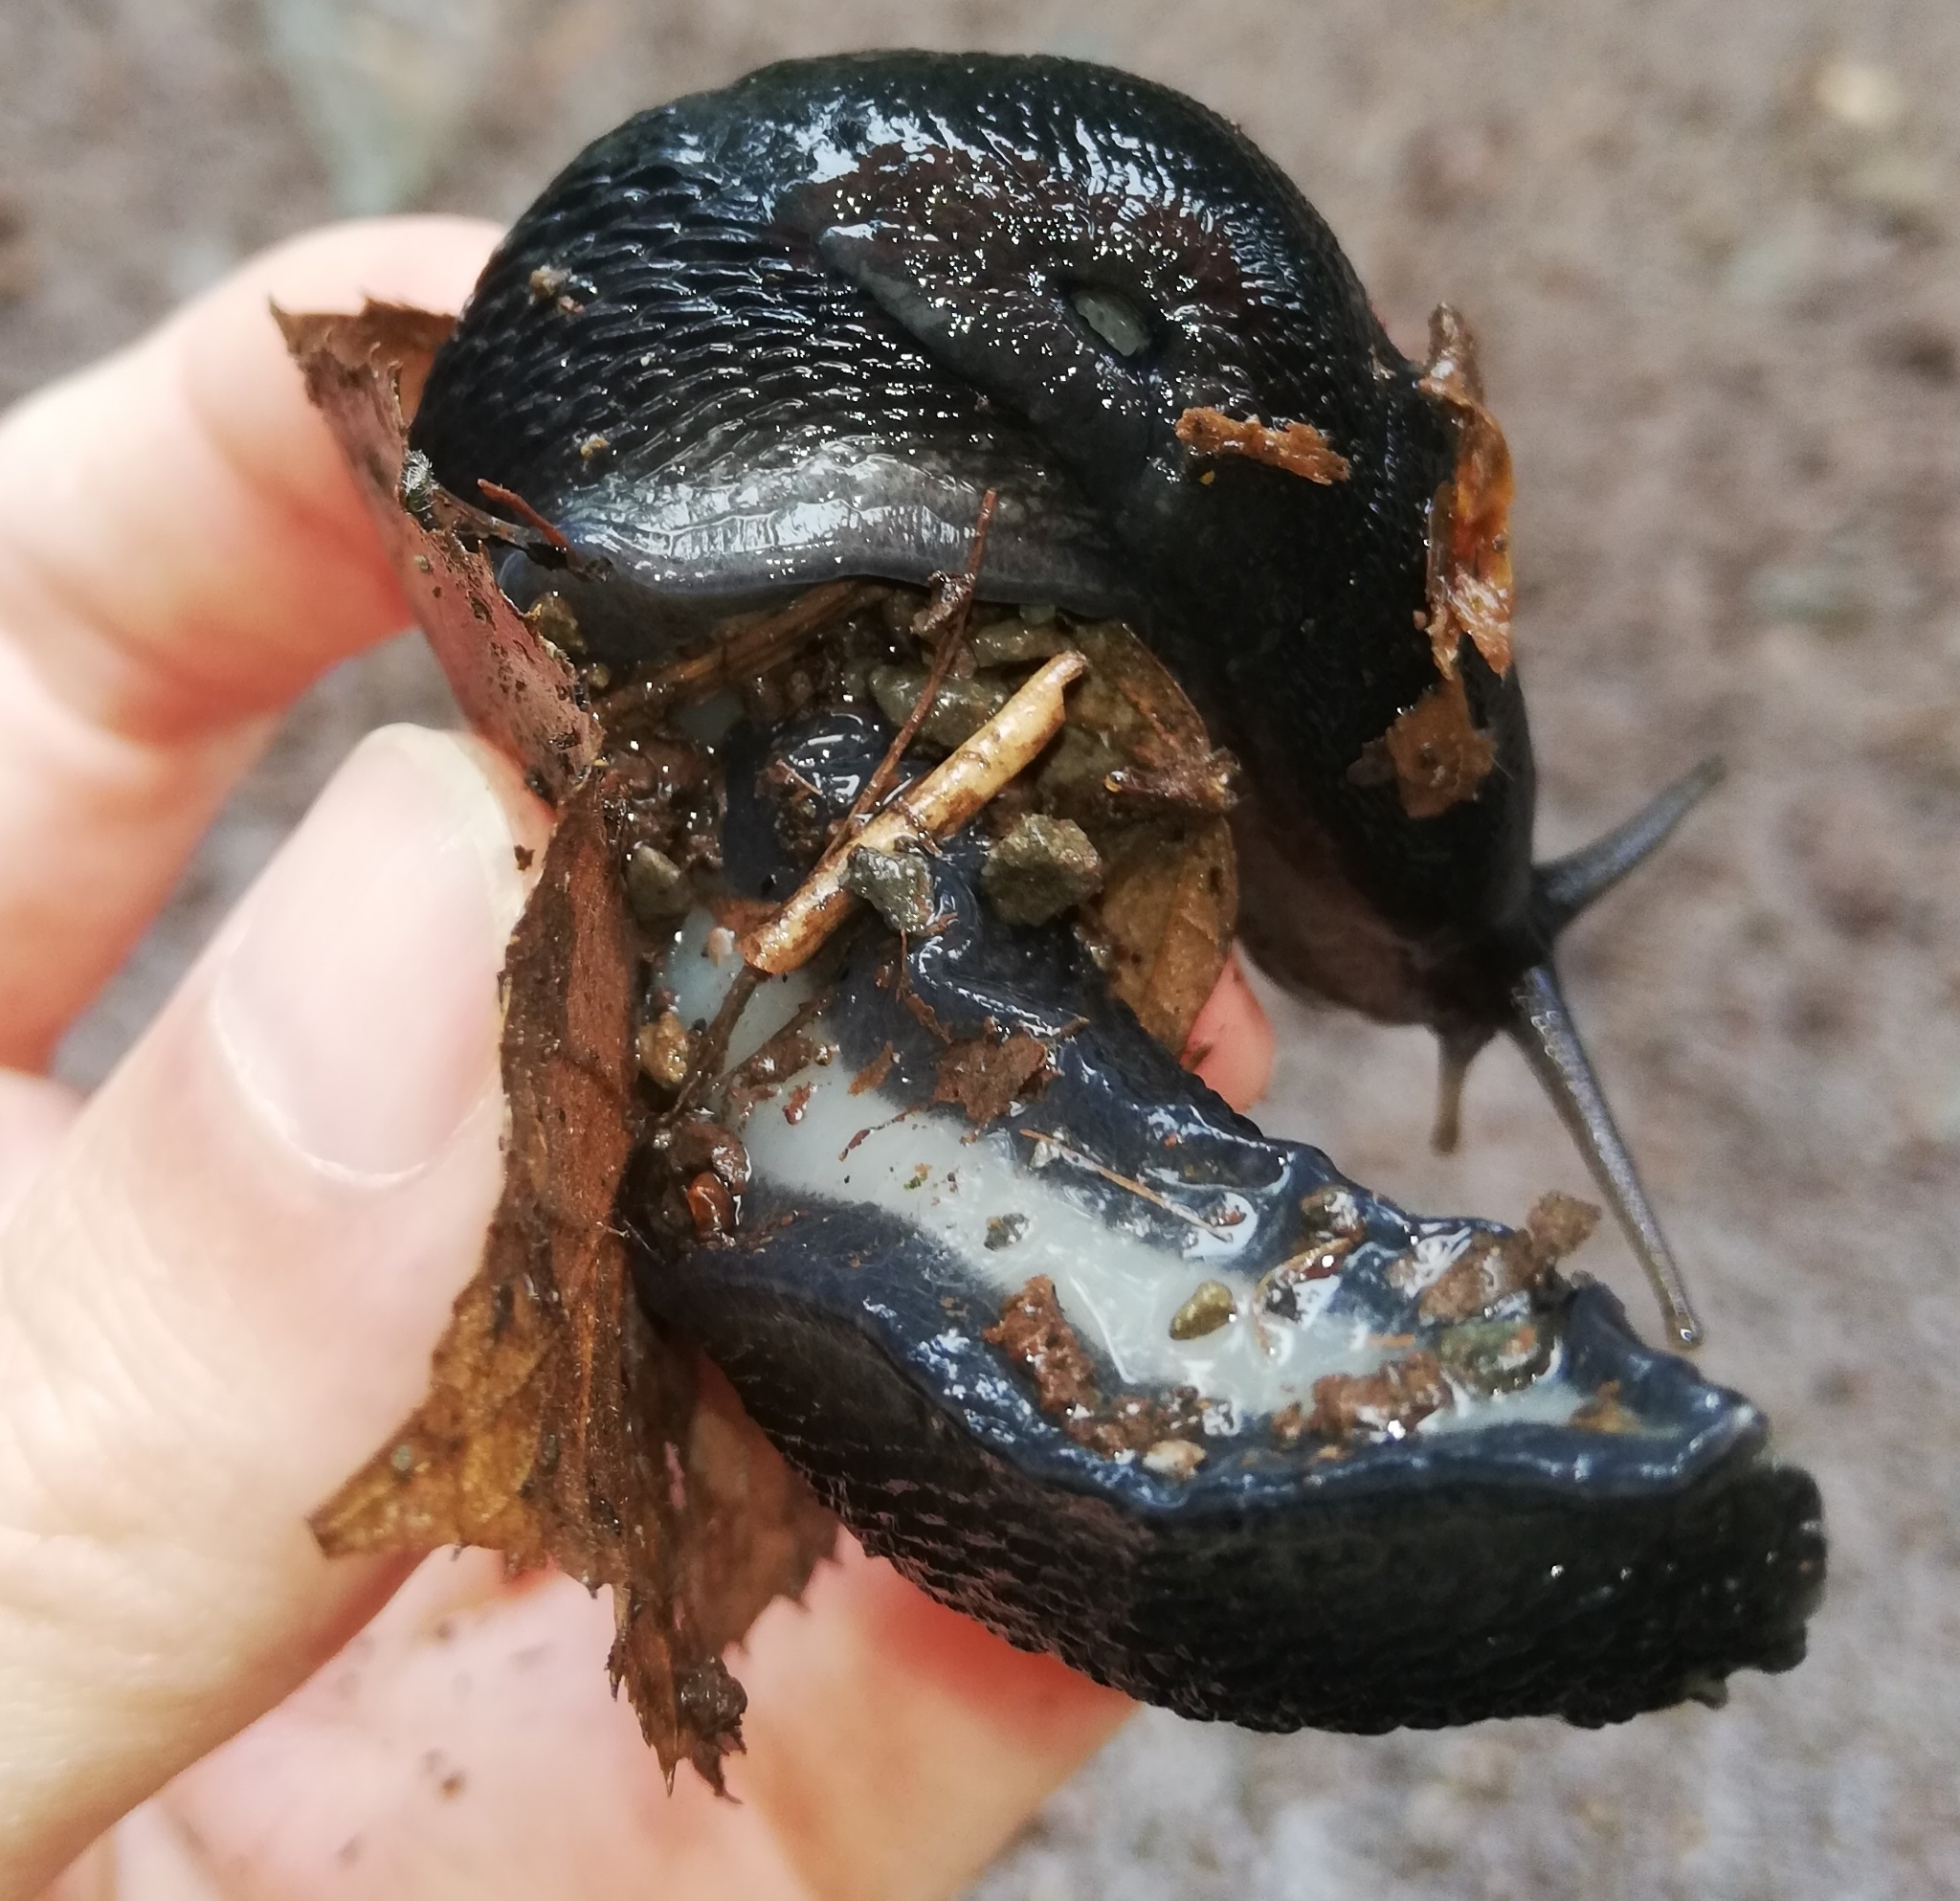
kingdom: Animalia
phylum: Mollusca
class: Gastropoda
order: Stylommatophora
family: Limacidae
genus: Limax
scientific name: Limax cinereoniger
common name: Ash-black slug
